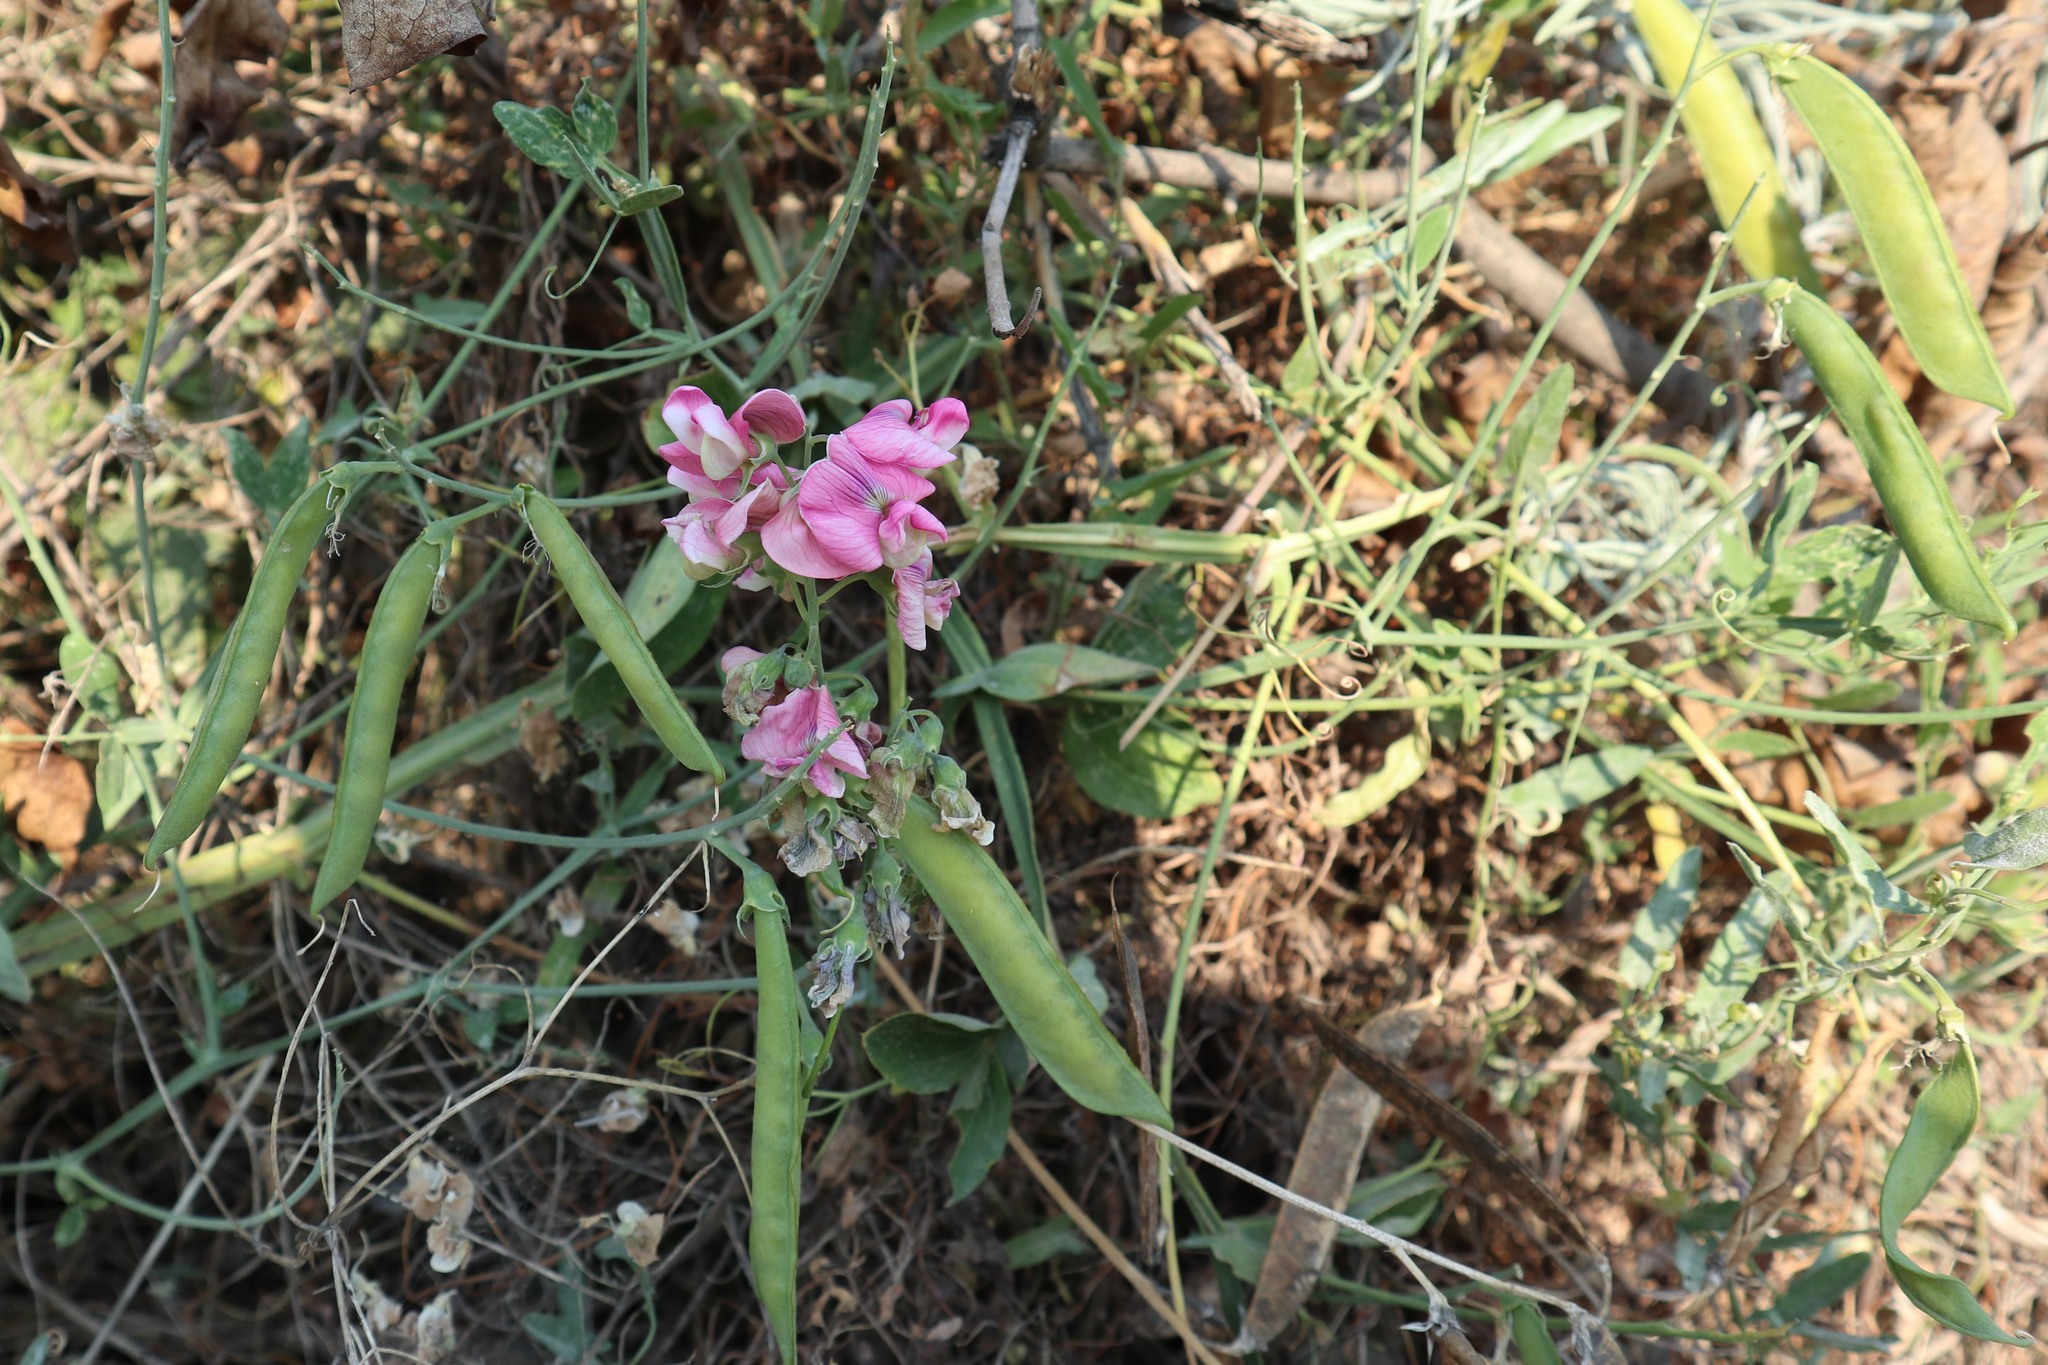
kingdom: Plantae
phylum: Tracheophyta
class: Magnoliopsida
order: Fabales
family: Fabaceae
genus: Lathyrus
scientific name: Lathyrus latifolius
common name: Perennial pea
